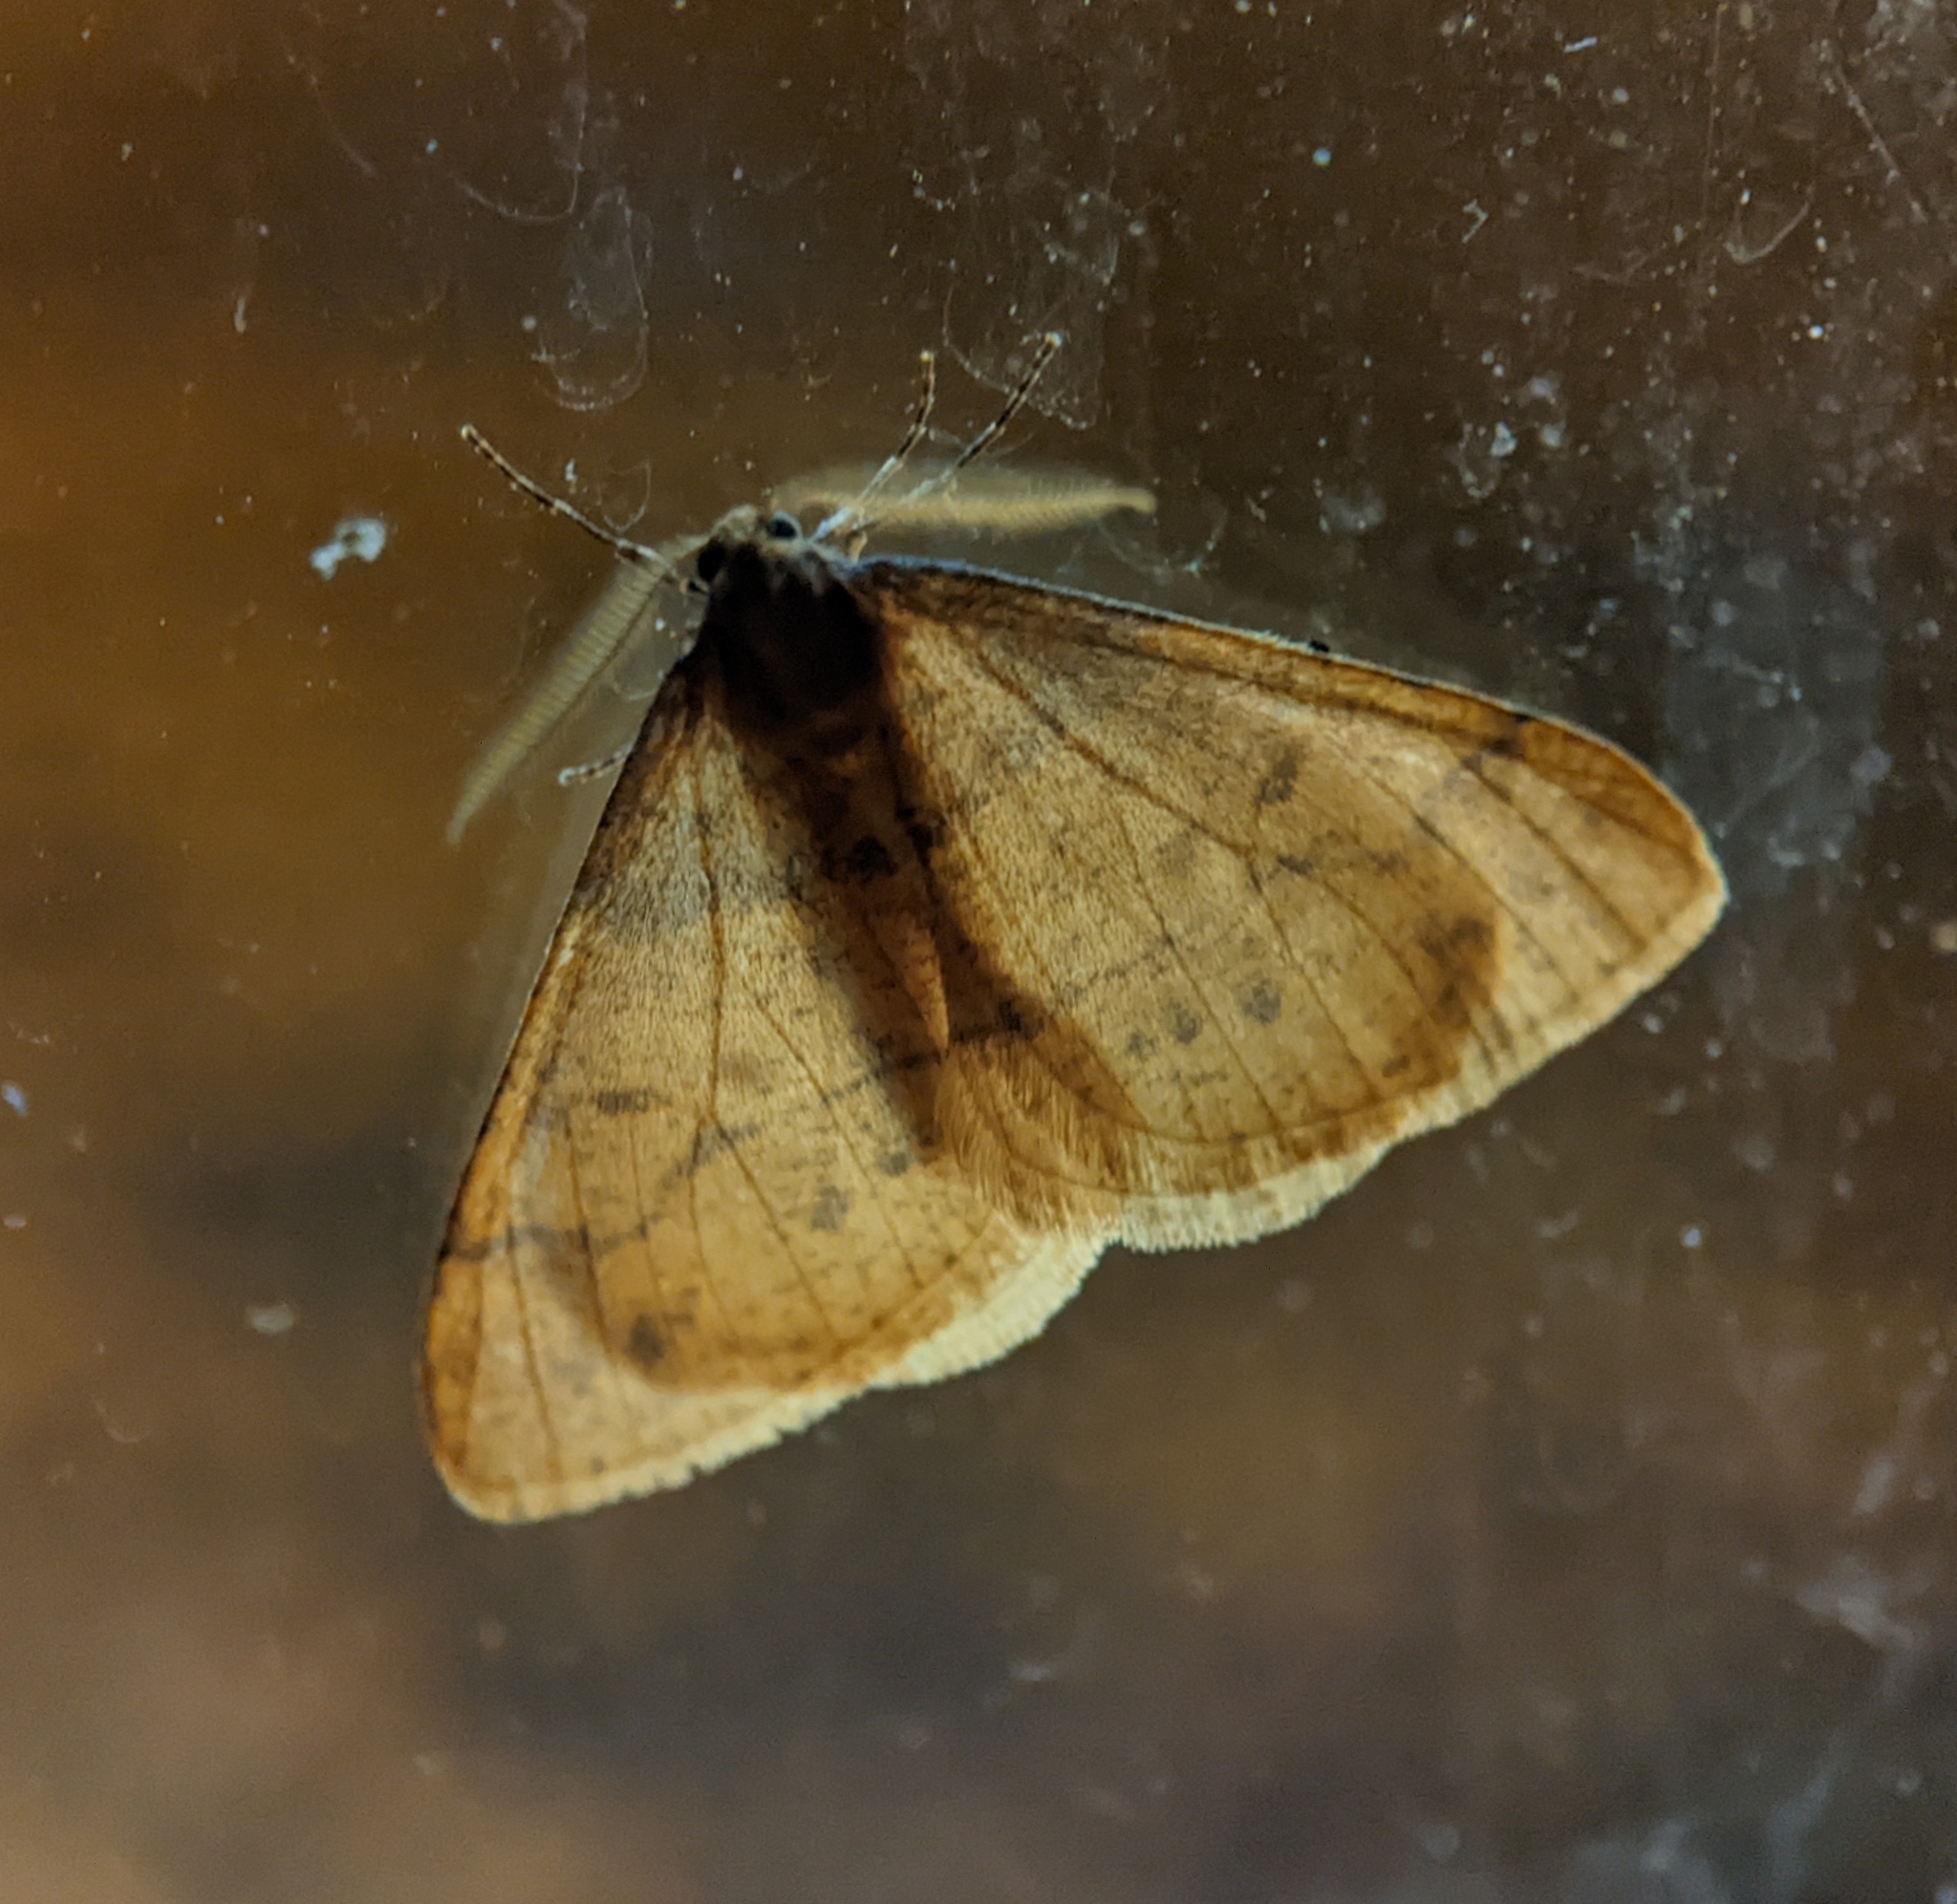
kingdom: Animalia
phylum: Arthropoda
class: Insecta
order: Lepidoptera
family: Geometridae
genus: Agriopis
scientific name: Agriopis aurantiaria
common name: Scarce umber
